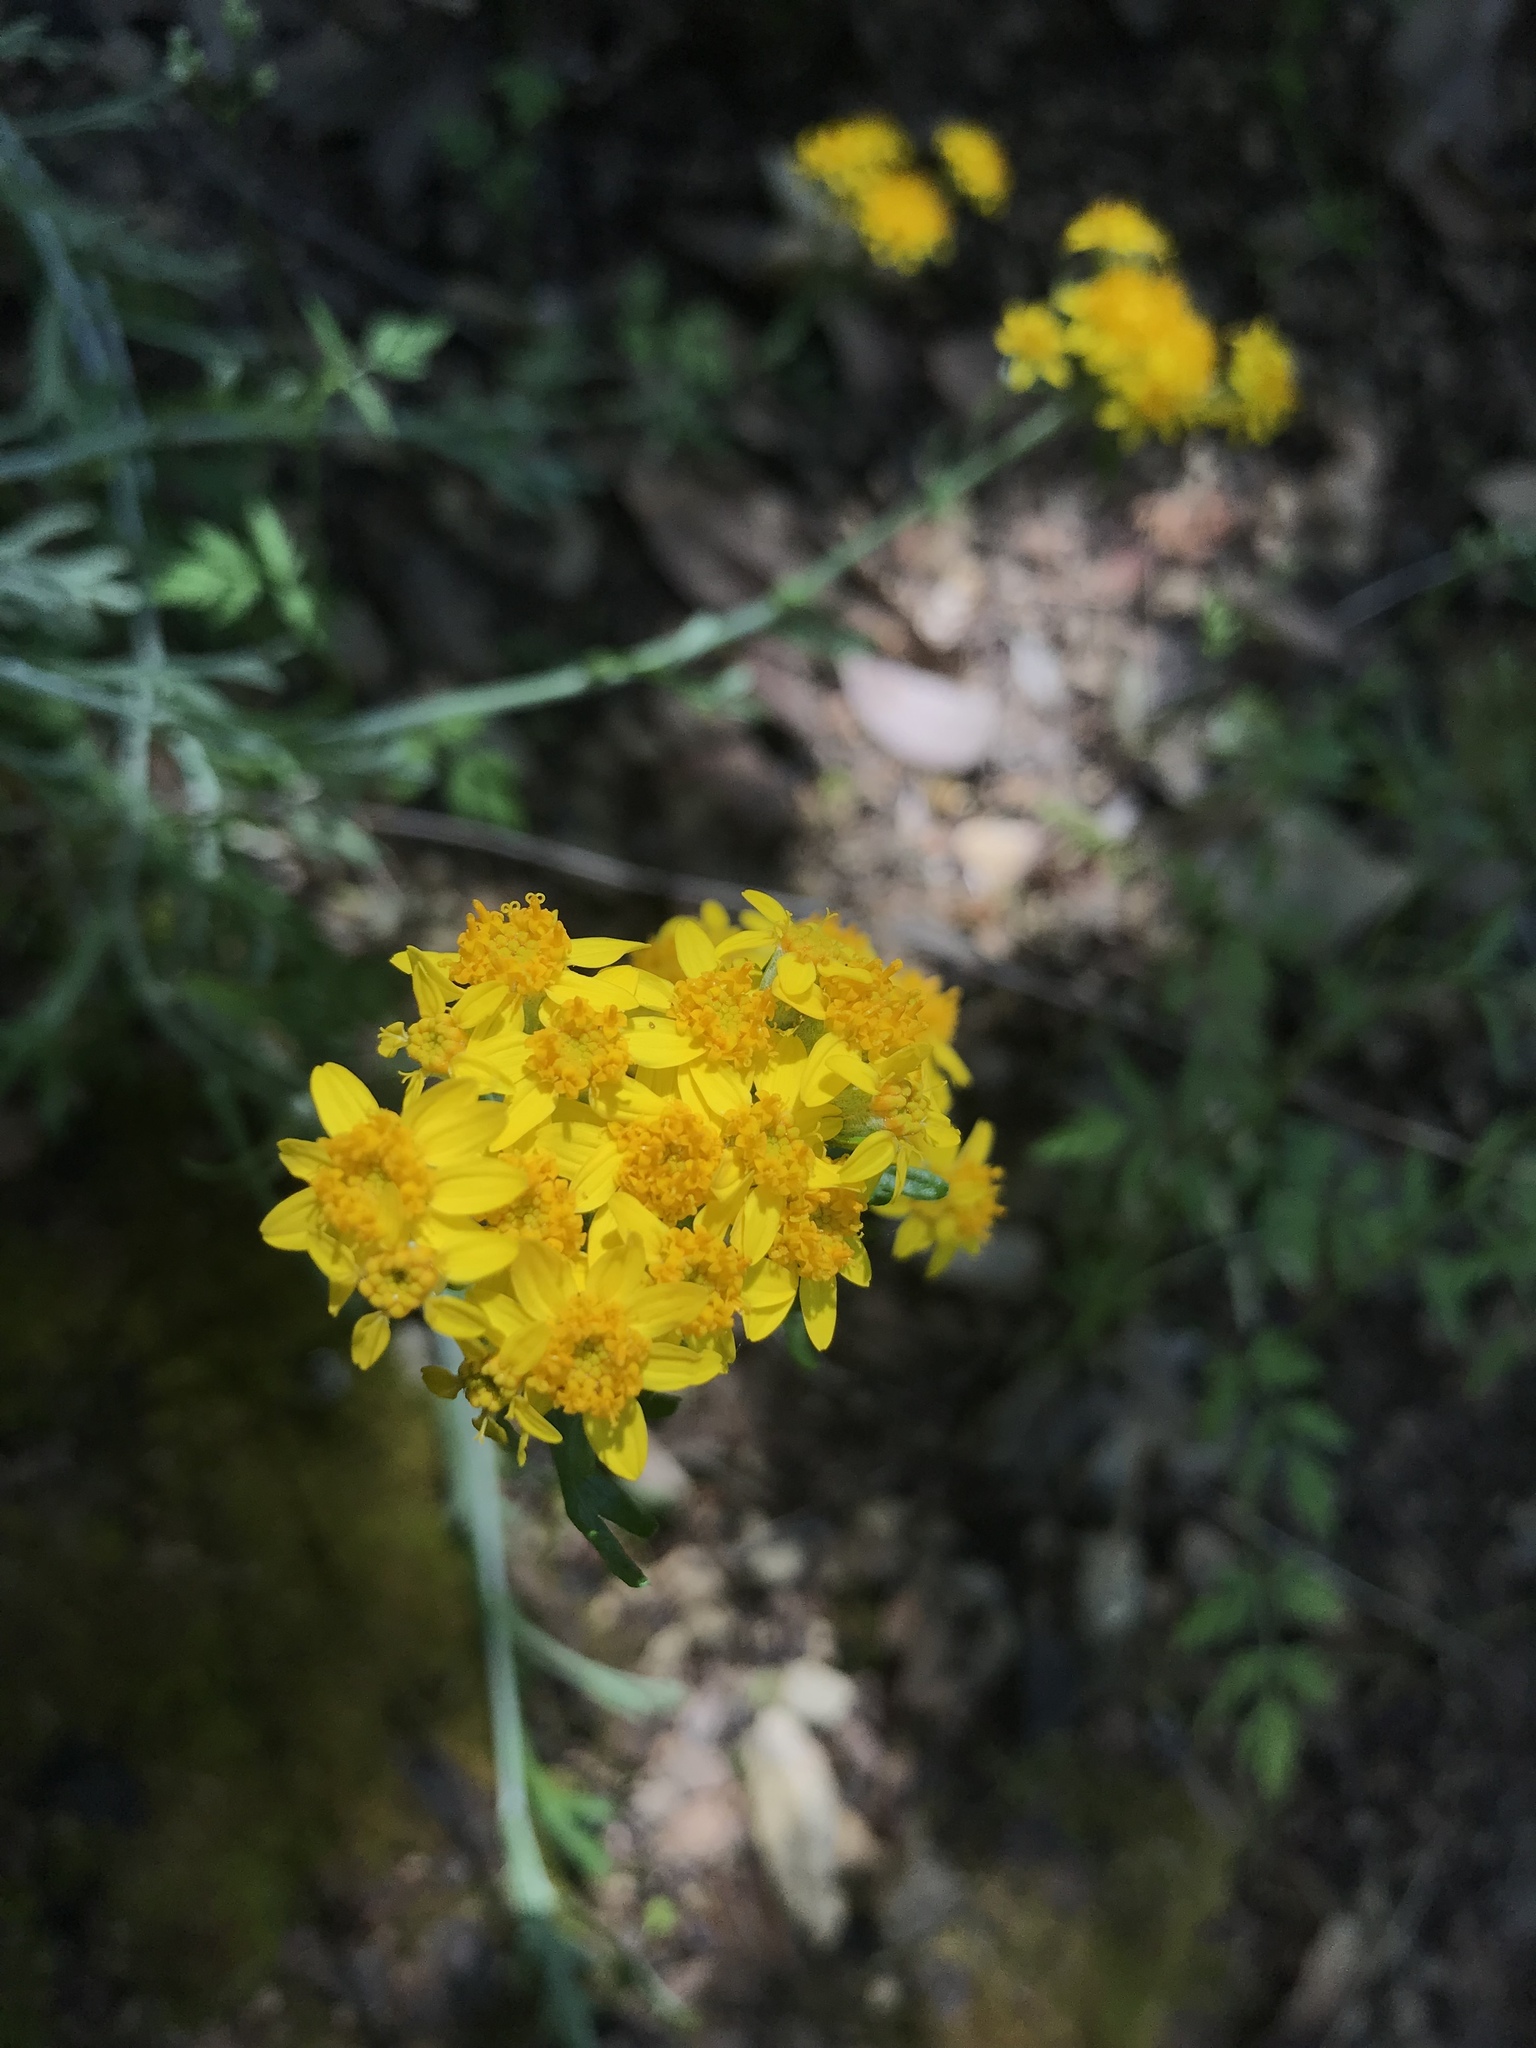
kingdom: Plantae
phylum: Tracheophyta
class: Magnoliopsida
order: Asterales
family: Asteraceae
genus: Eriophyllum
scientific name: Eriophyllum confertiflorum
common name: Golden-yarrow
